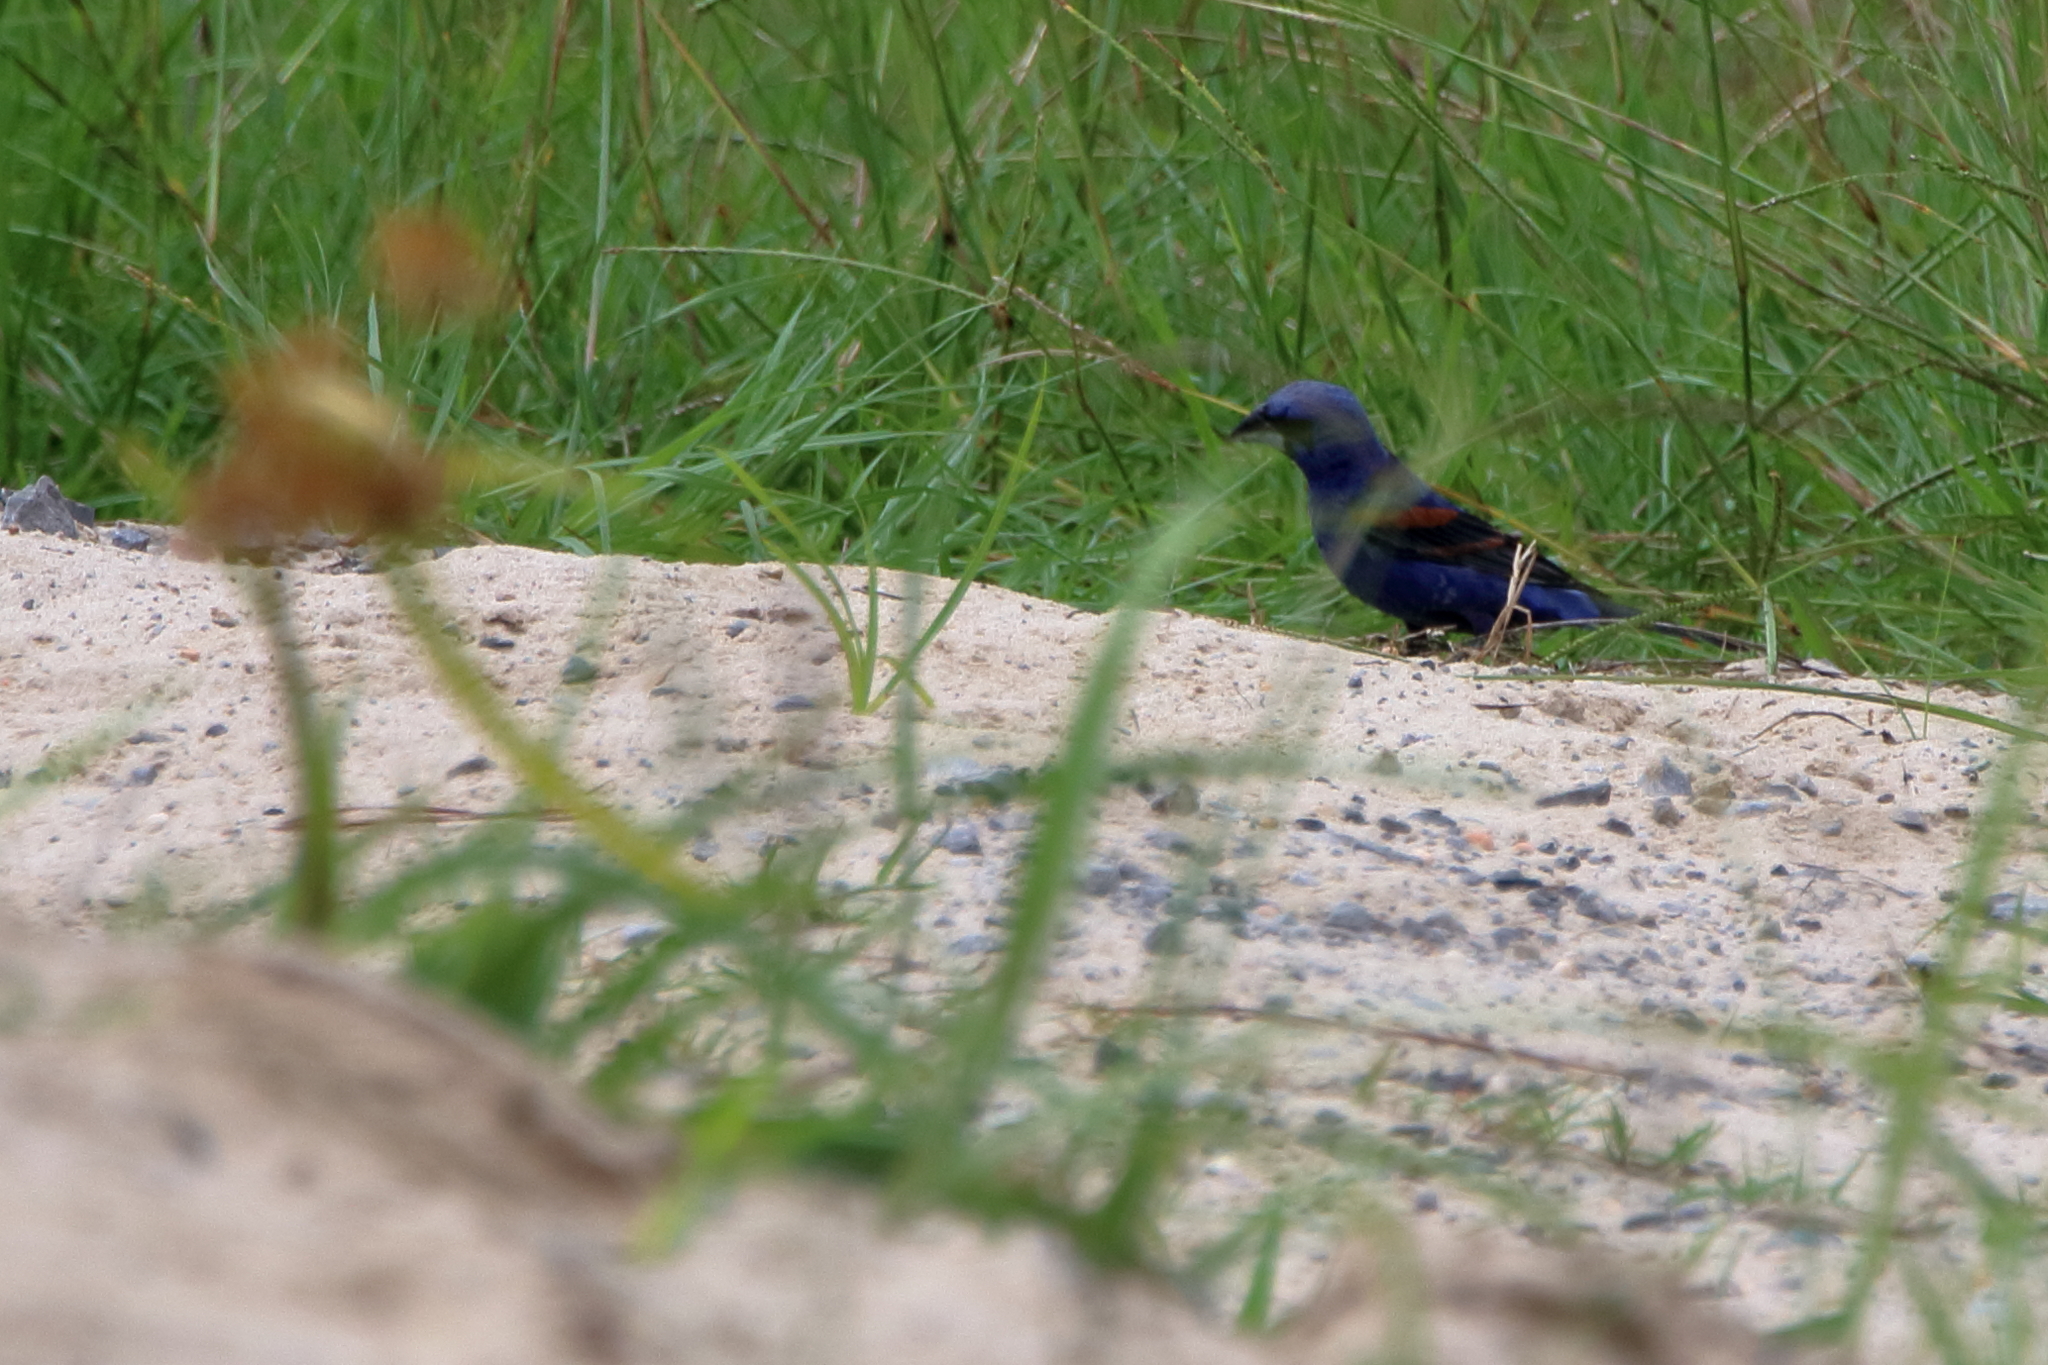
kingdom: Animalia
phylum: Chordata
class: Aves
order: Passeriformes
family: Cardinalidae
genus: Passerina
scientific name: Passerina caerulea
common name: Blue grosbeak
